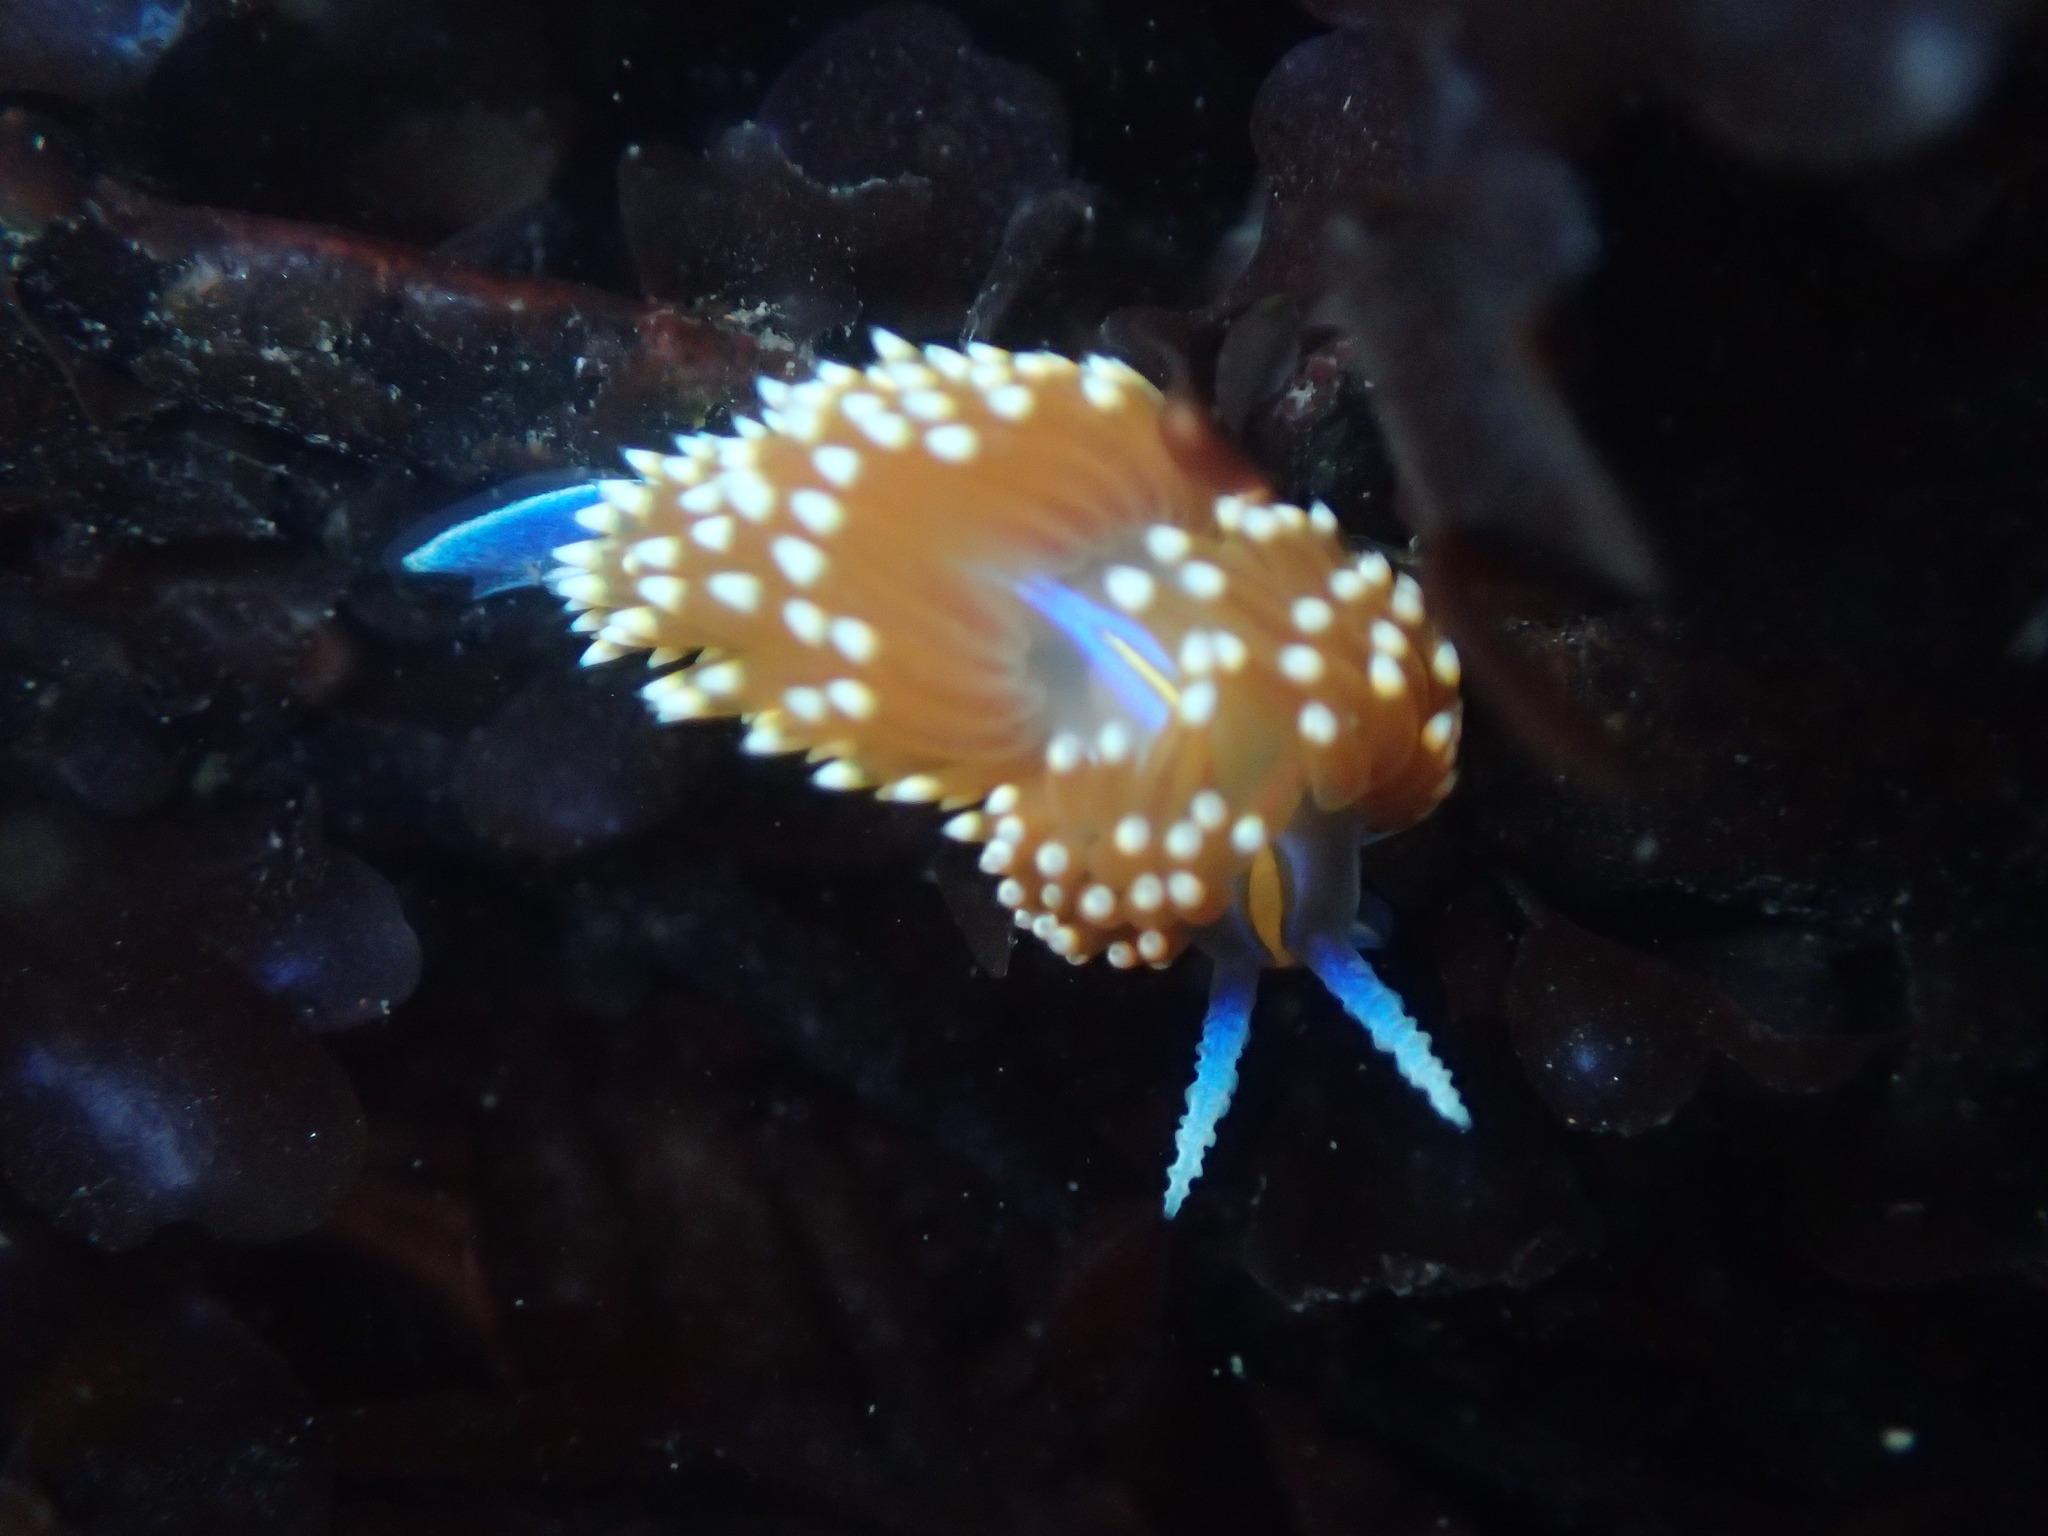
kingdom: Animalia
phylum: Mollusca
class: Gastropoda
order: Nudibranchia
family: Myrrhinidae
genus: Hermissenda
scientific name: Hermissenda opalescens
